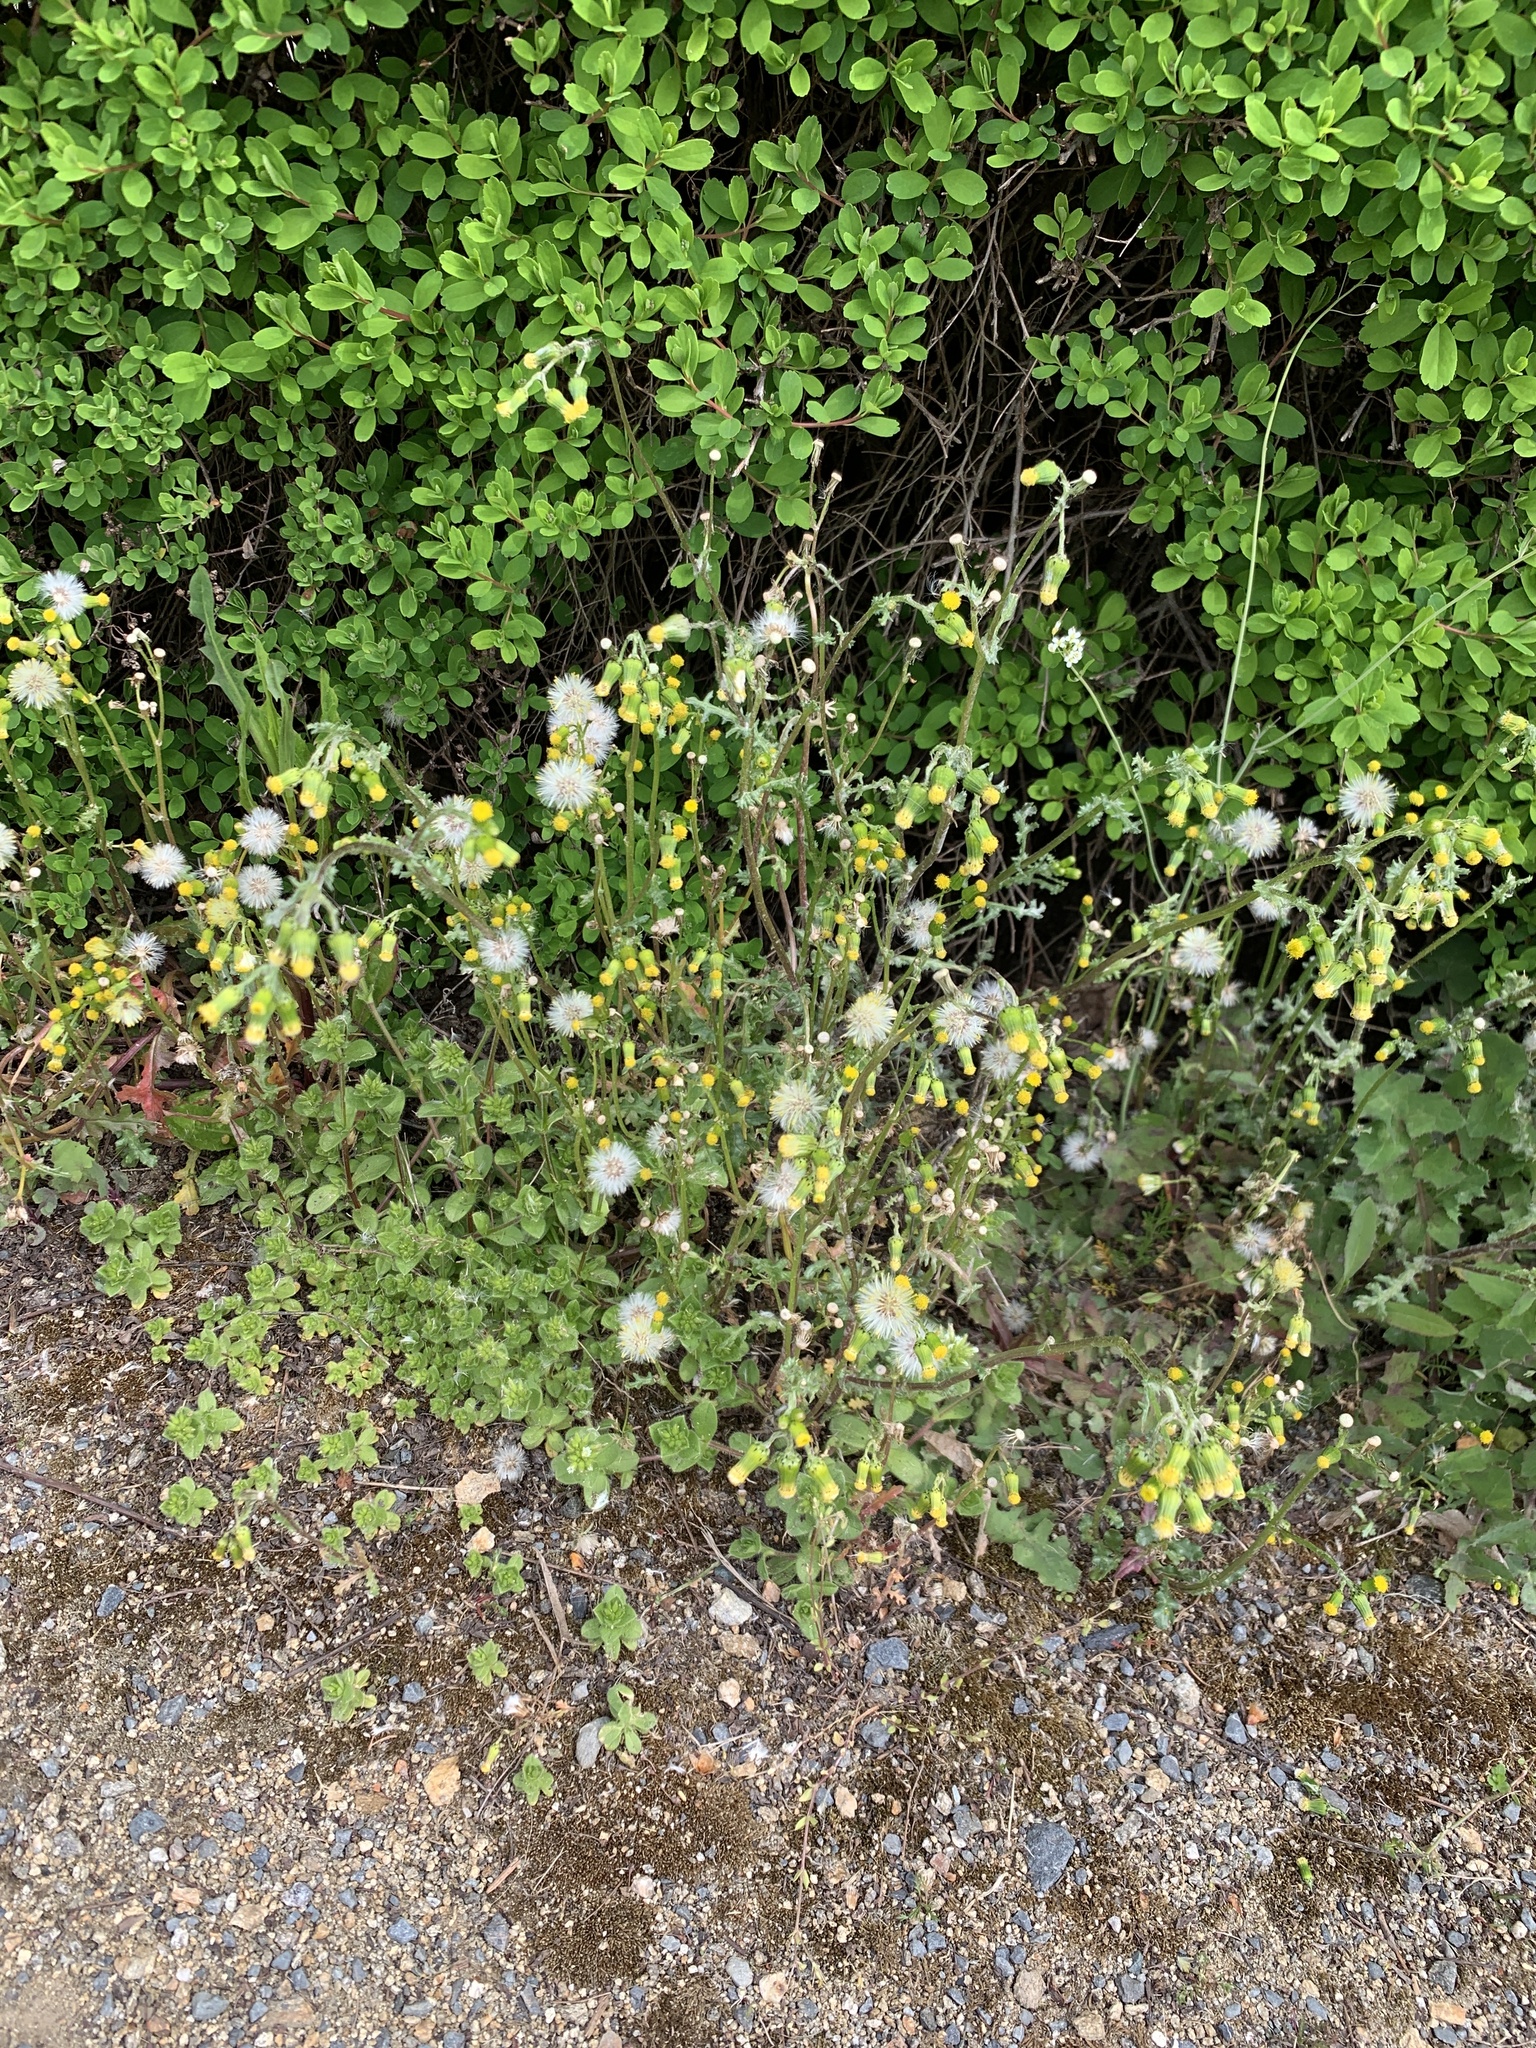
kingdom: Plantae
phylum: Tracheophyta
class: Magnoliopsida
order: Asterales
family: Asteraceae
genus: Senecio
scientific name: Senecio vulgaris
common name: Old-man-in-the-spring
